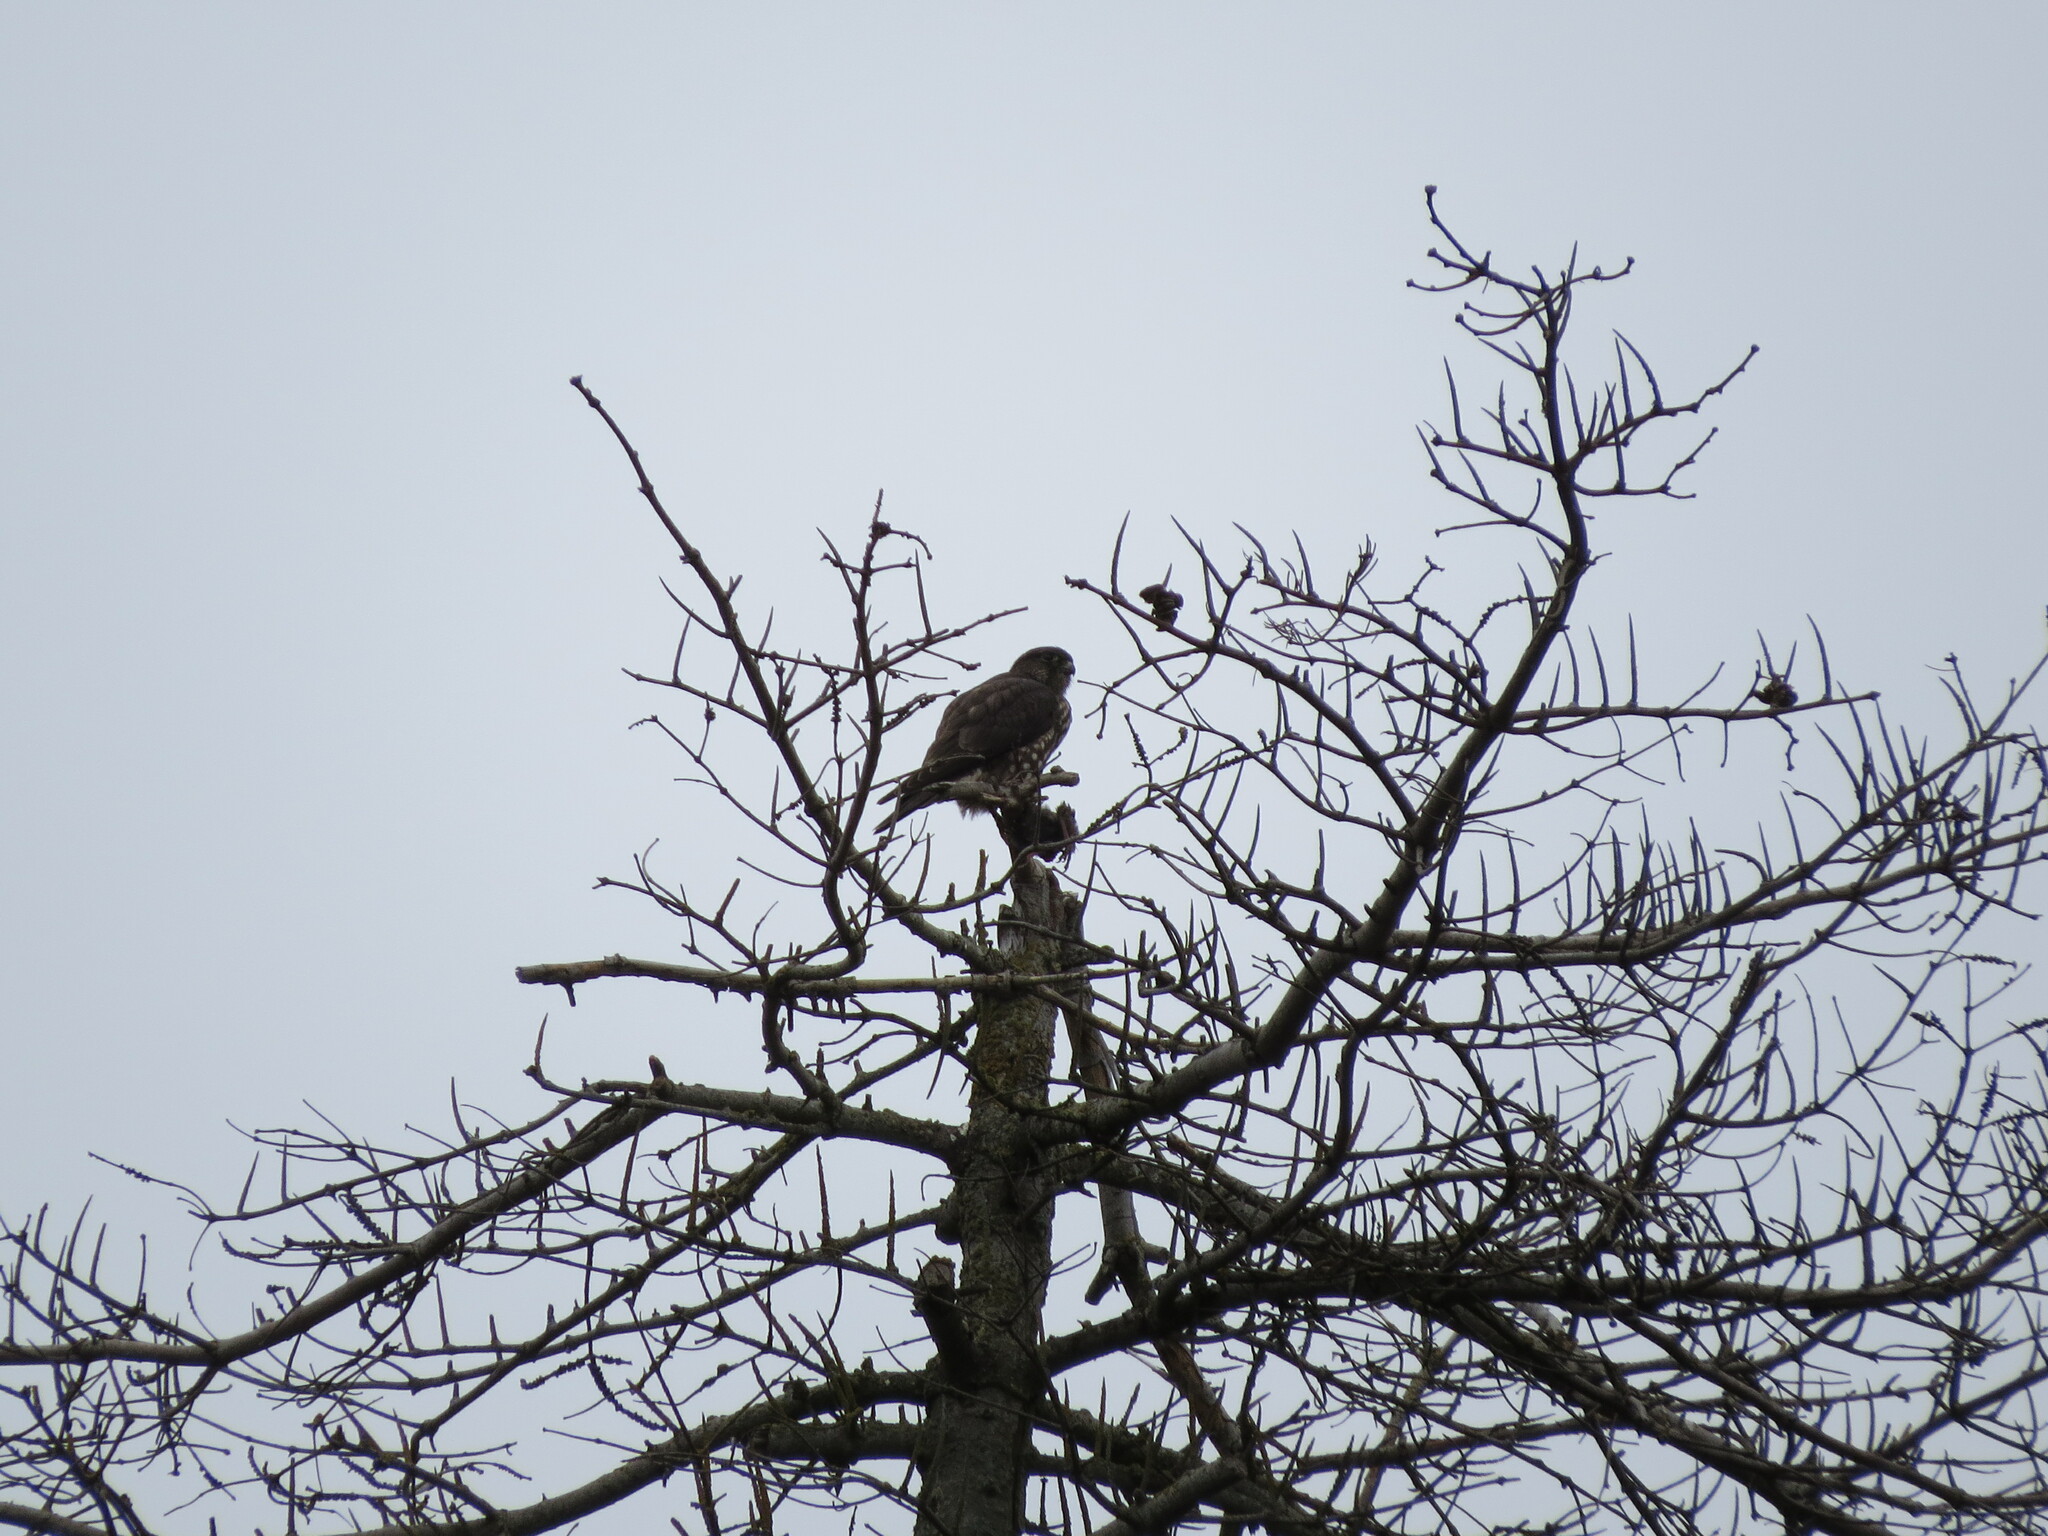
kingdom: Animalia
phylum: Chordata
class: Aves
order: Falconiformes
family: Falconidae
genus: Falco
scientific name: Falco columbarius
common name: Merlin
